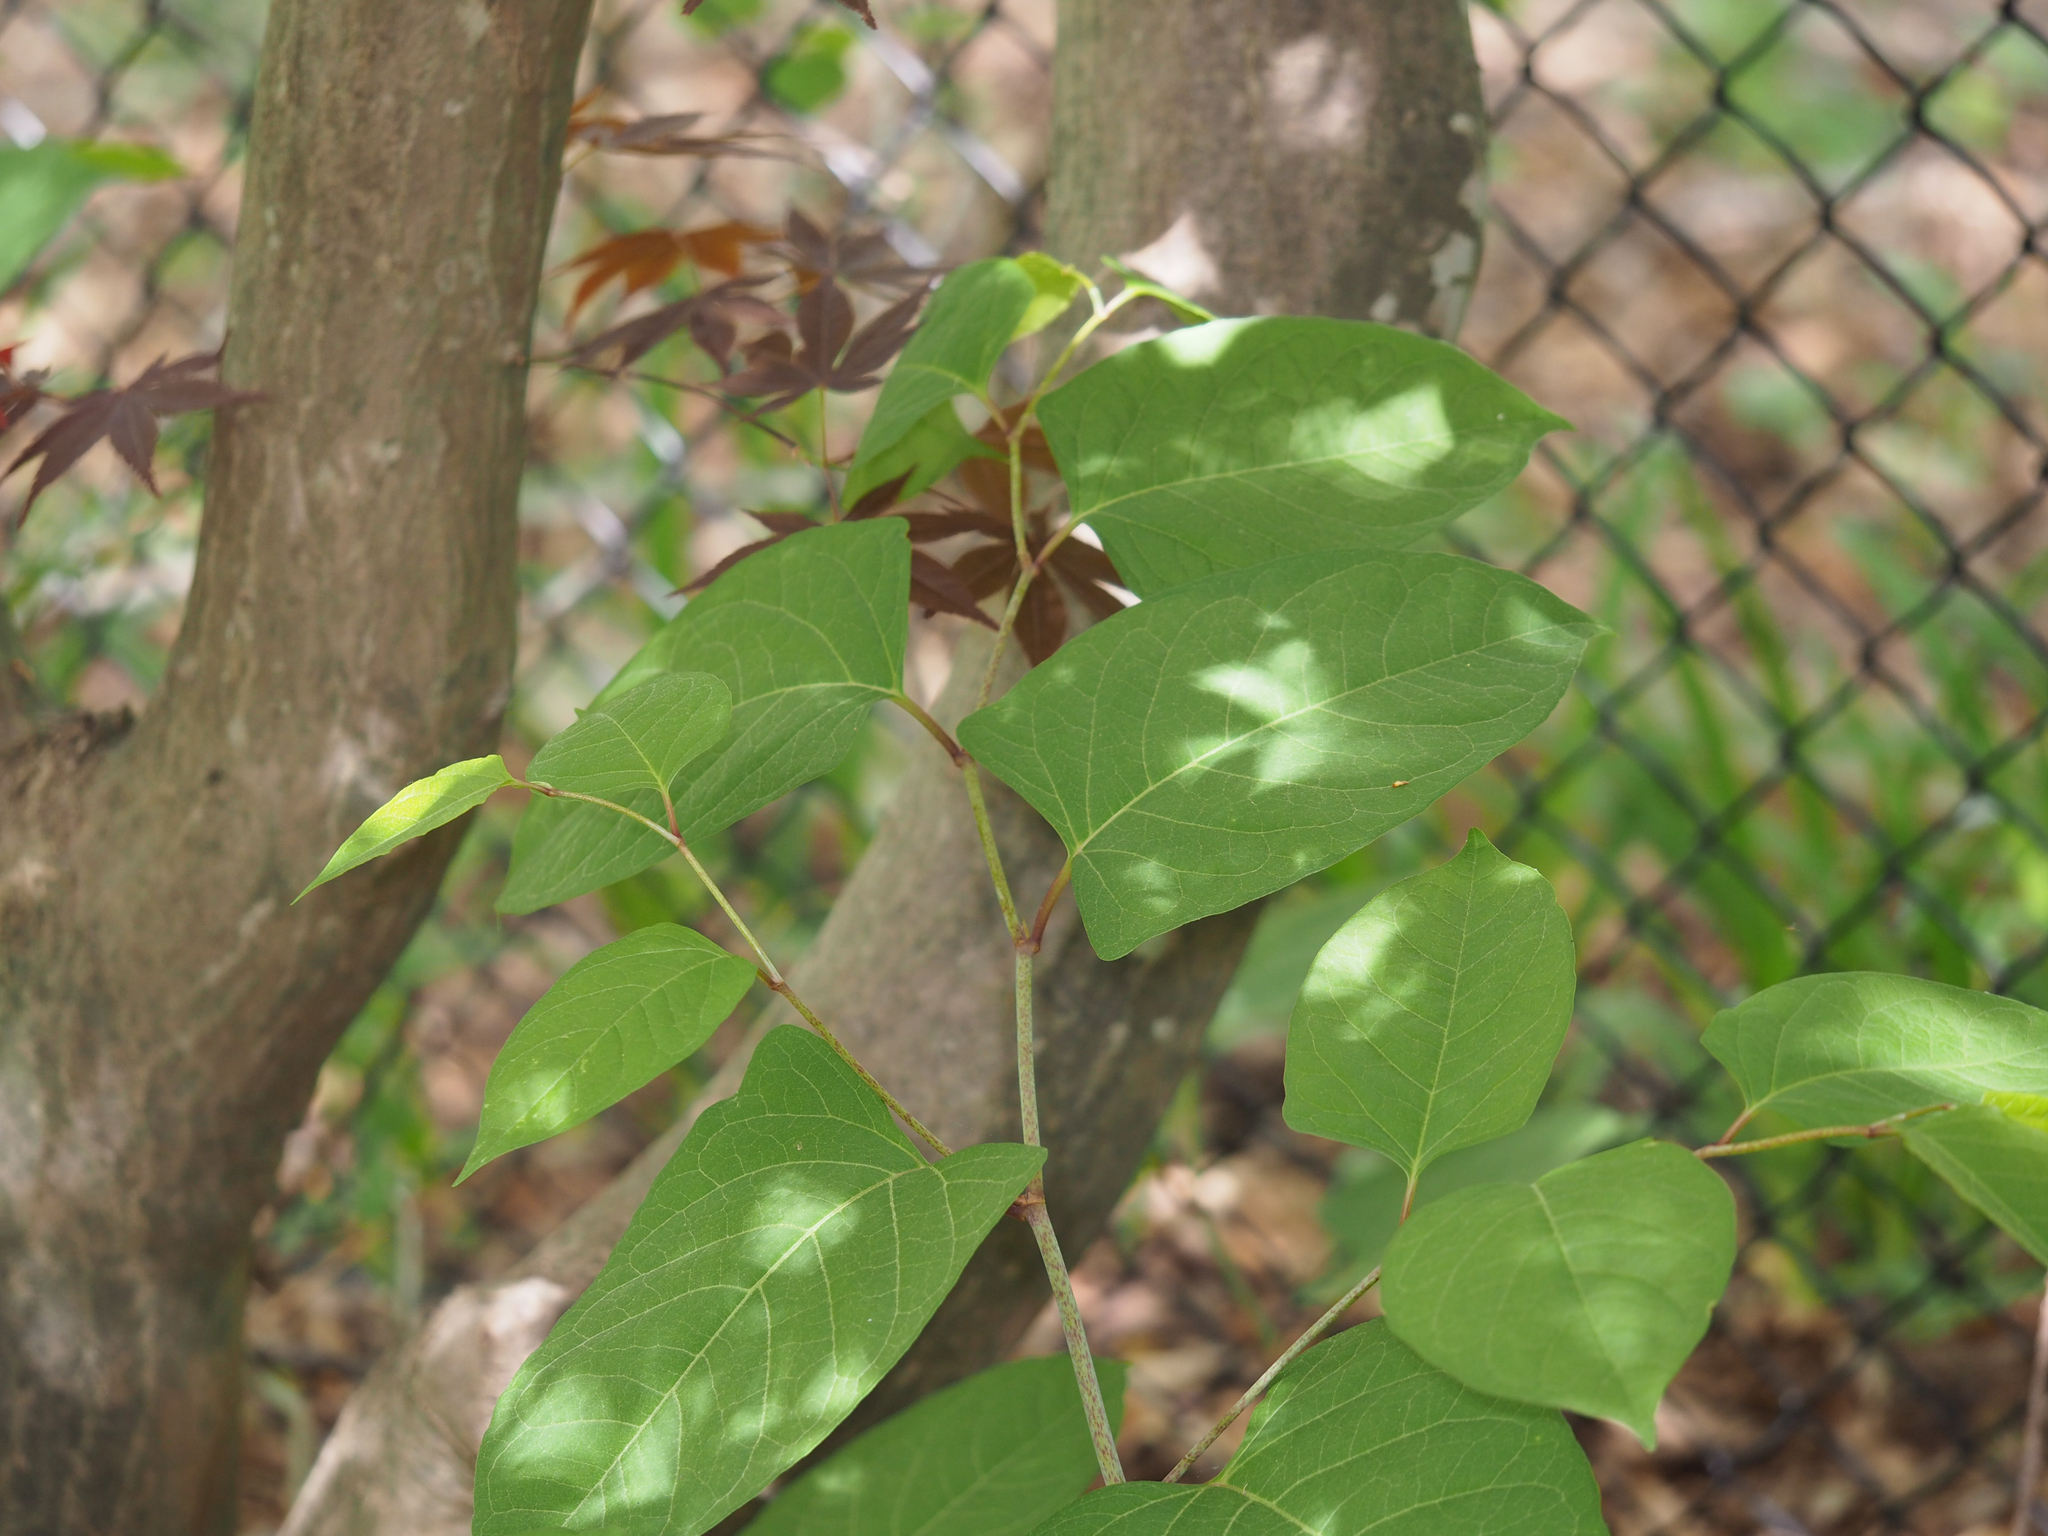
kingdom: Plantae
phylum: Tracheophyta
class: Magnoliopsida
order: Caryophyllales
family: Polygonaceae
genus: Reynoutria
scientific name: Reynoutria japonica
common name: Japanese knotweed
